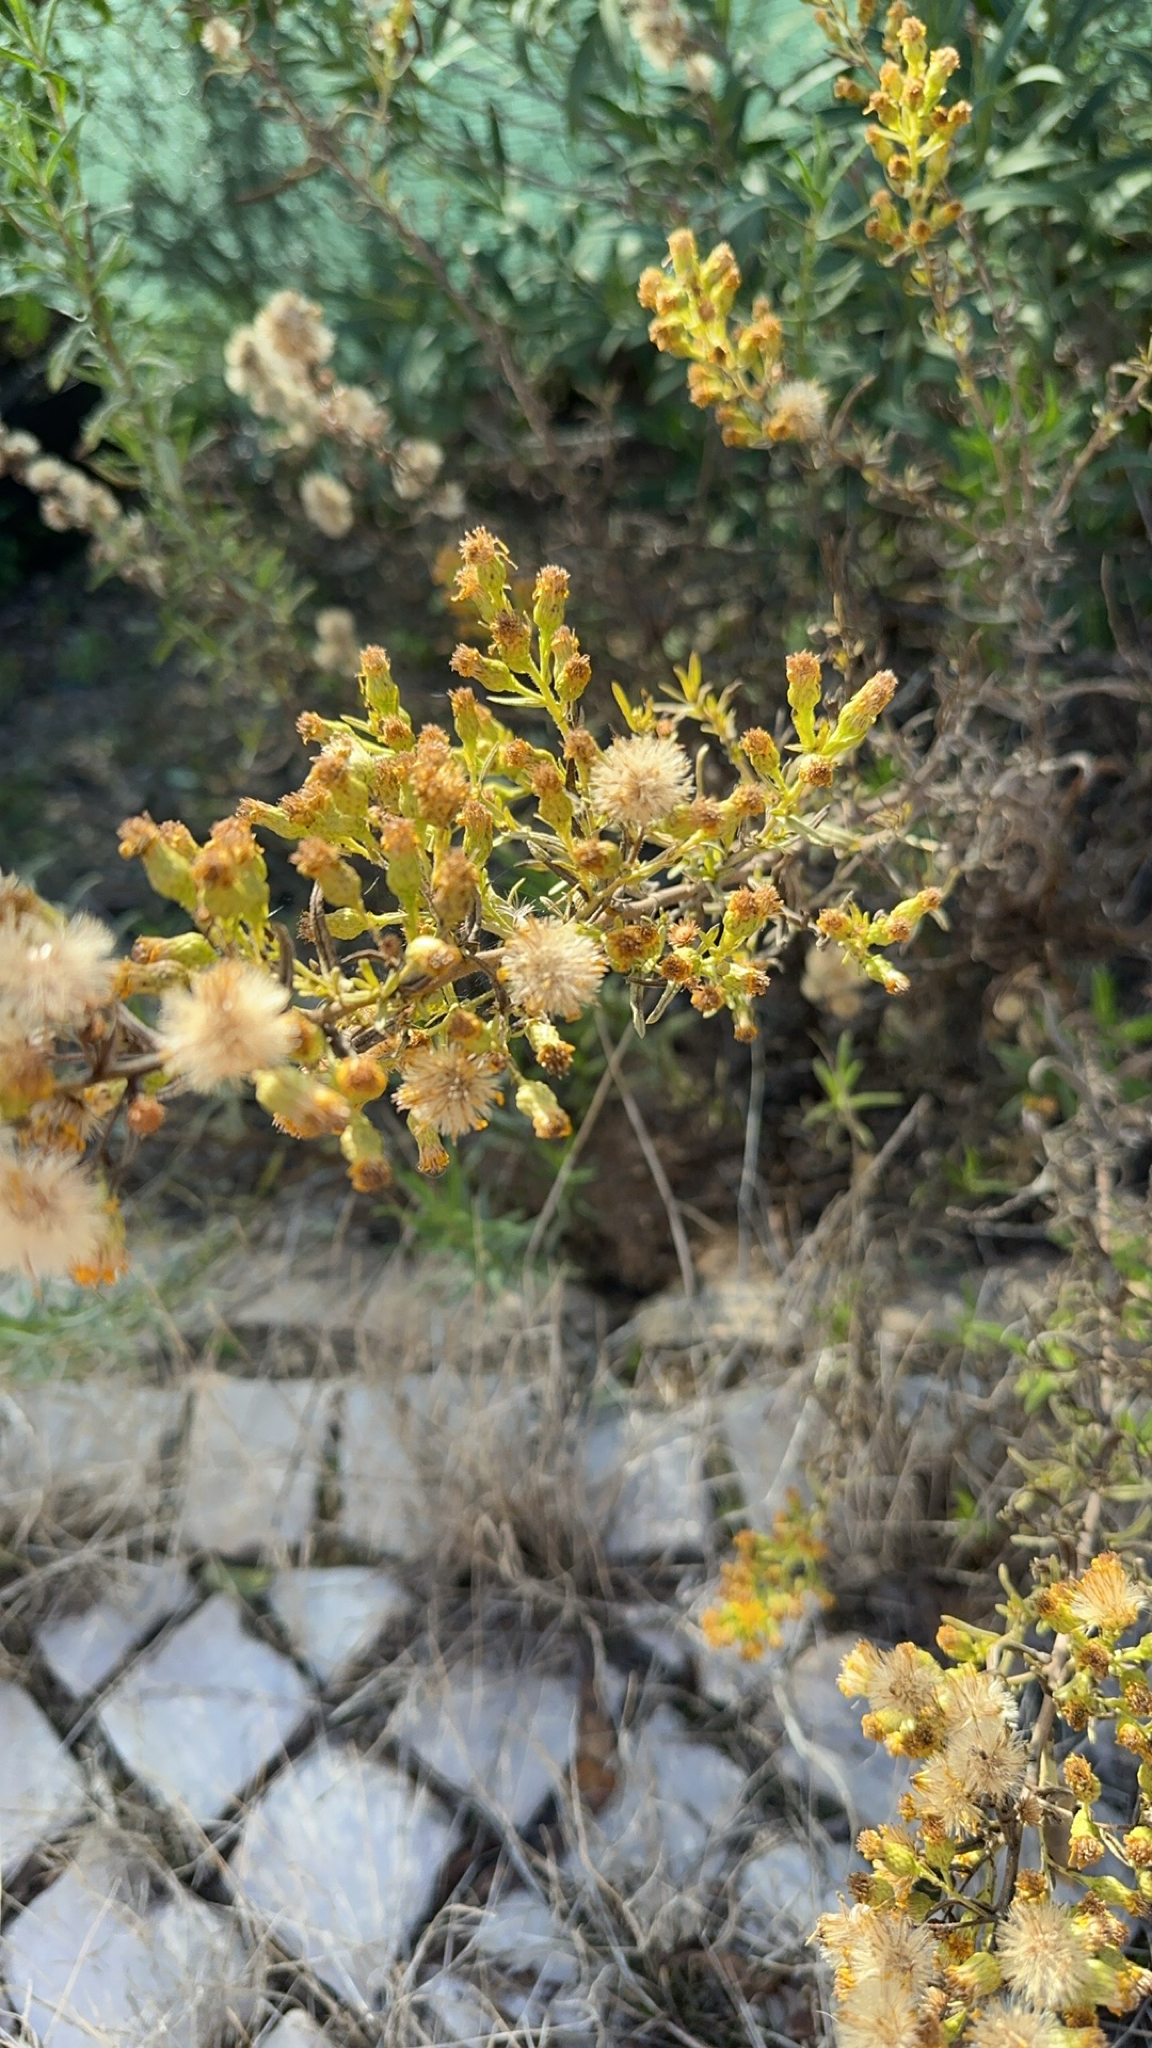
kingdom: Plantae
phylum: Tracheophyta
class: Magnoliopsida
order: Asterales
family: Asteraceae
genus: Dittrichia
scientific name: Dittrichia viscosa
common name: Woody fleabane
